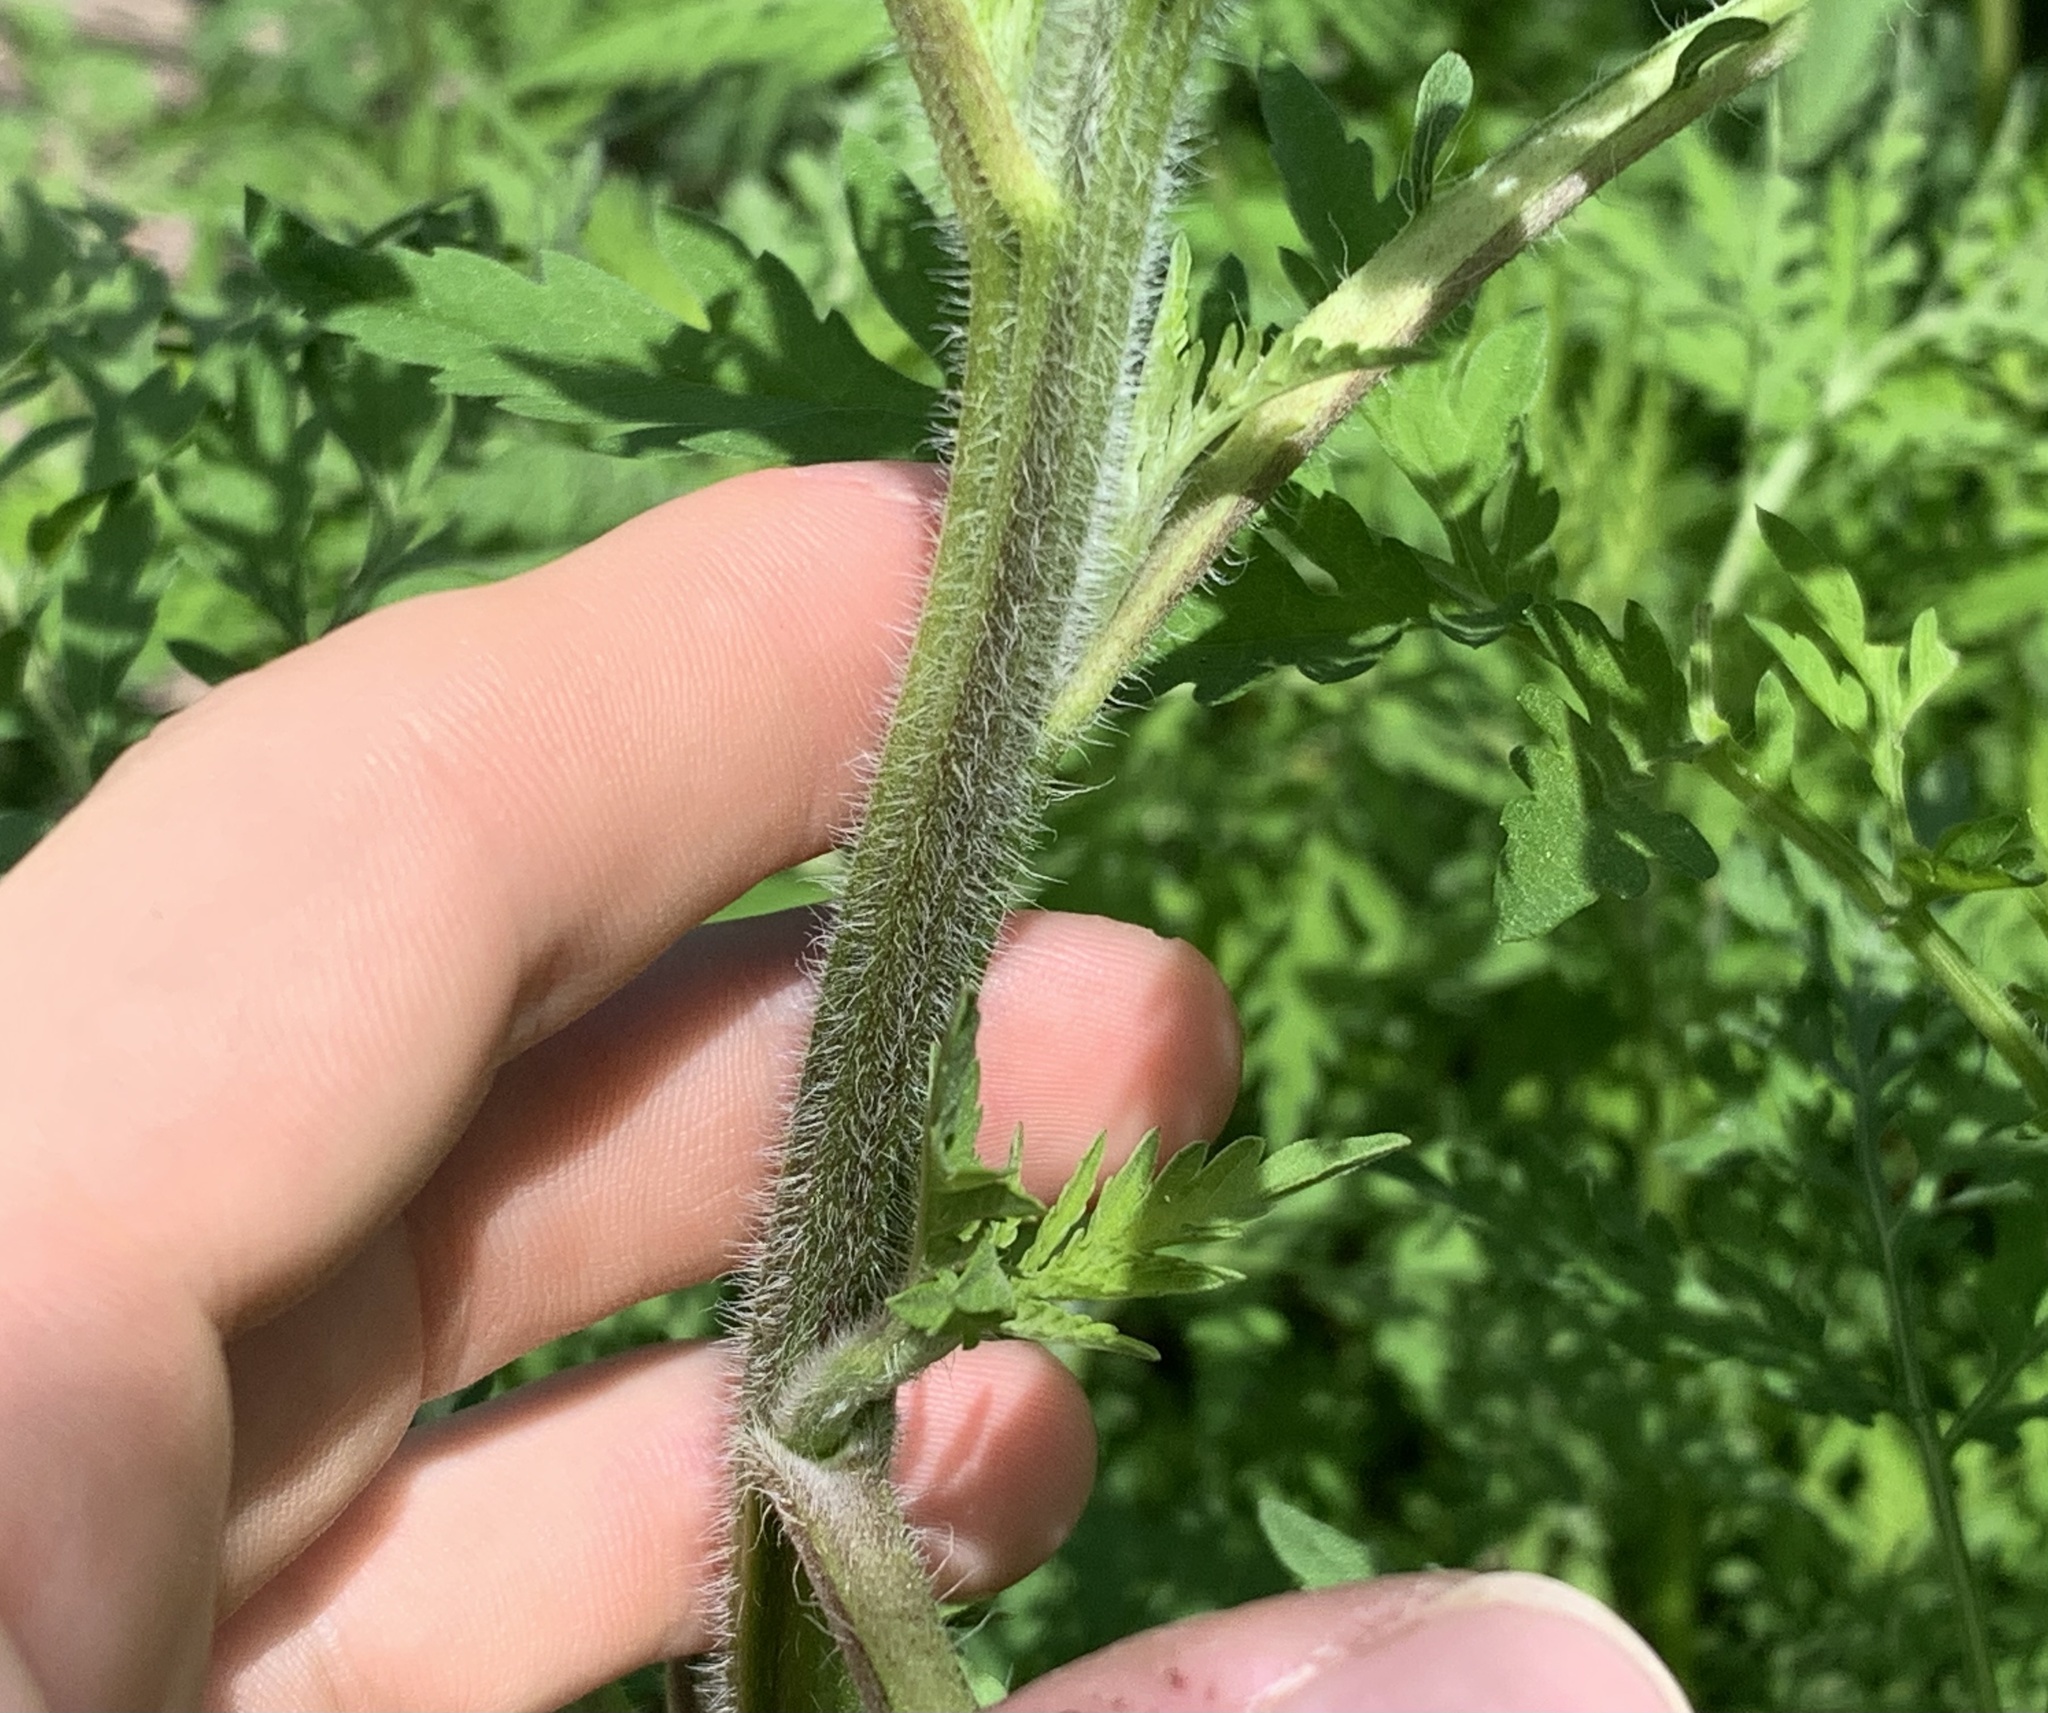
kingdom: Plantae
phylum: Tracheophyta
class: Magnoliopsida
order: Asterales
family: Asteraceae
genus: Ambrosia
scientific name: Ambrosia artemisiifolia
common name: Annual ragweed
